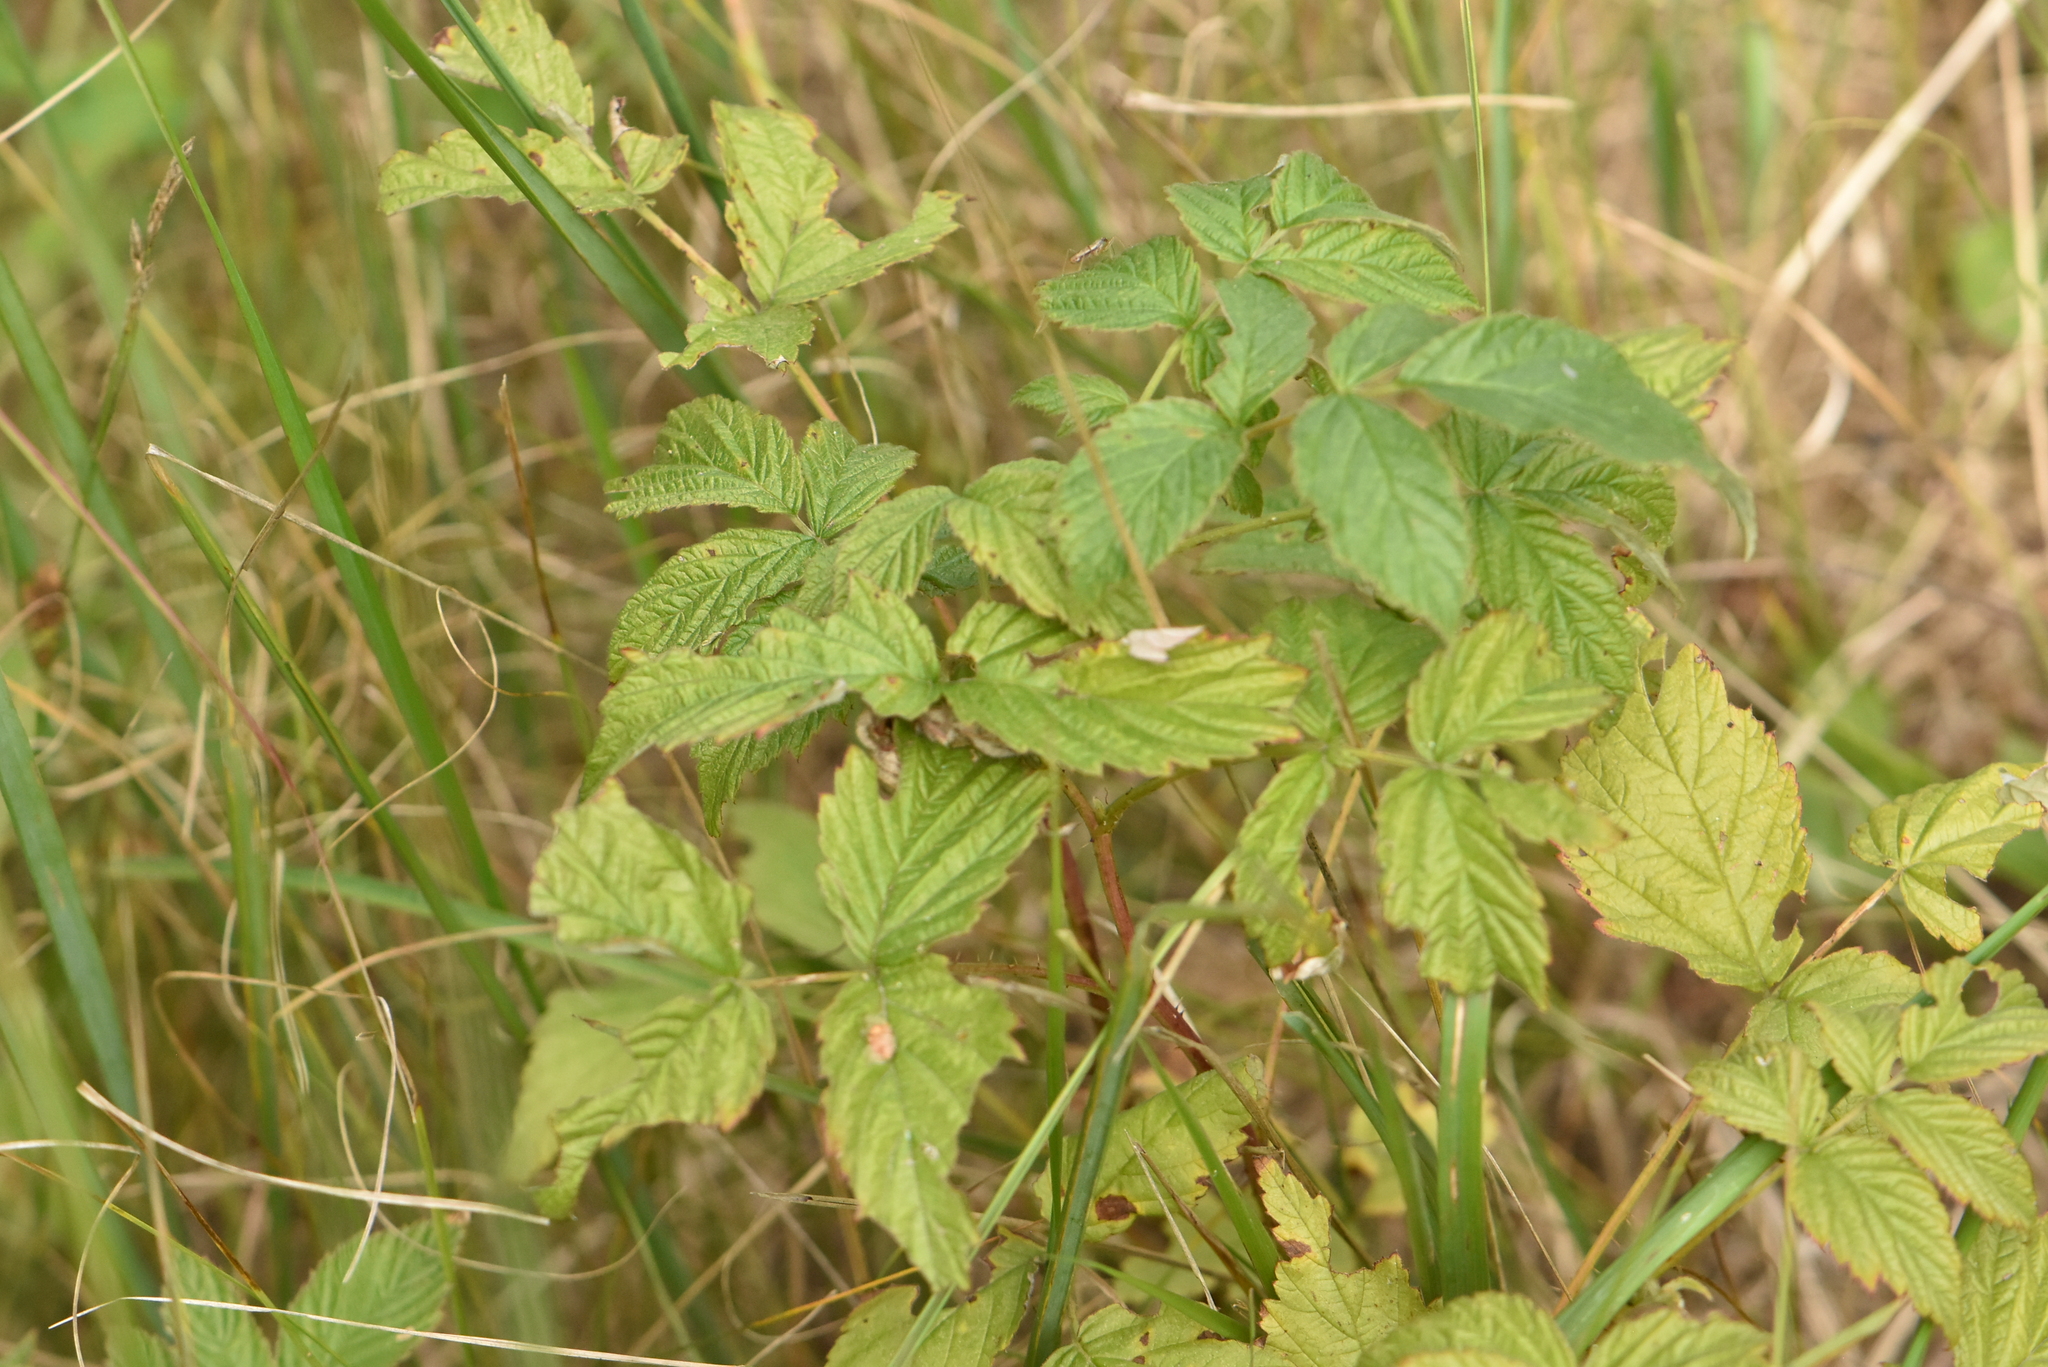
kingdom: Plantae
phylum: Tracheophyta
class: Magnoliopsida
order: Rosales
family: Rosaceae
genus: Rubus
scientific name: Rubus idaeus
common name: Raspberry
